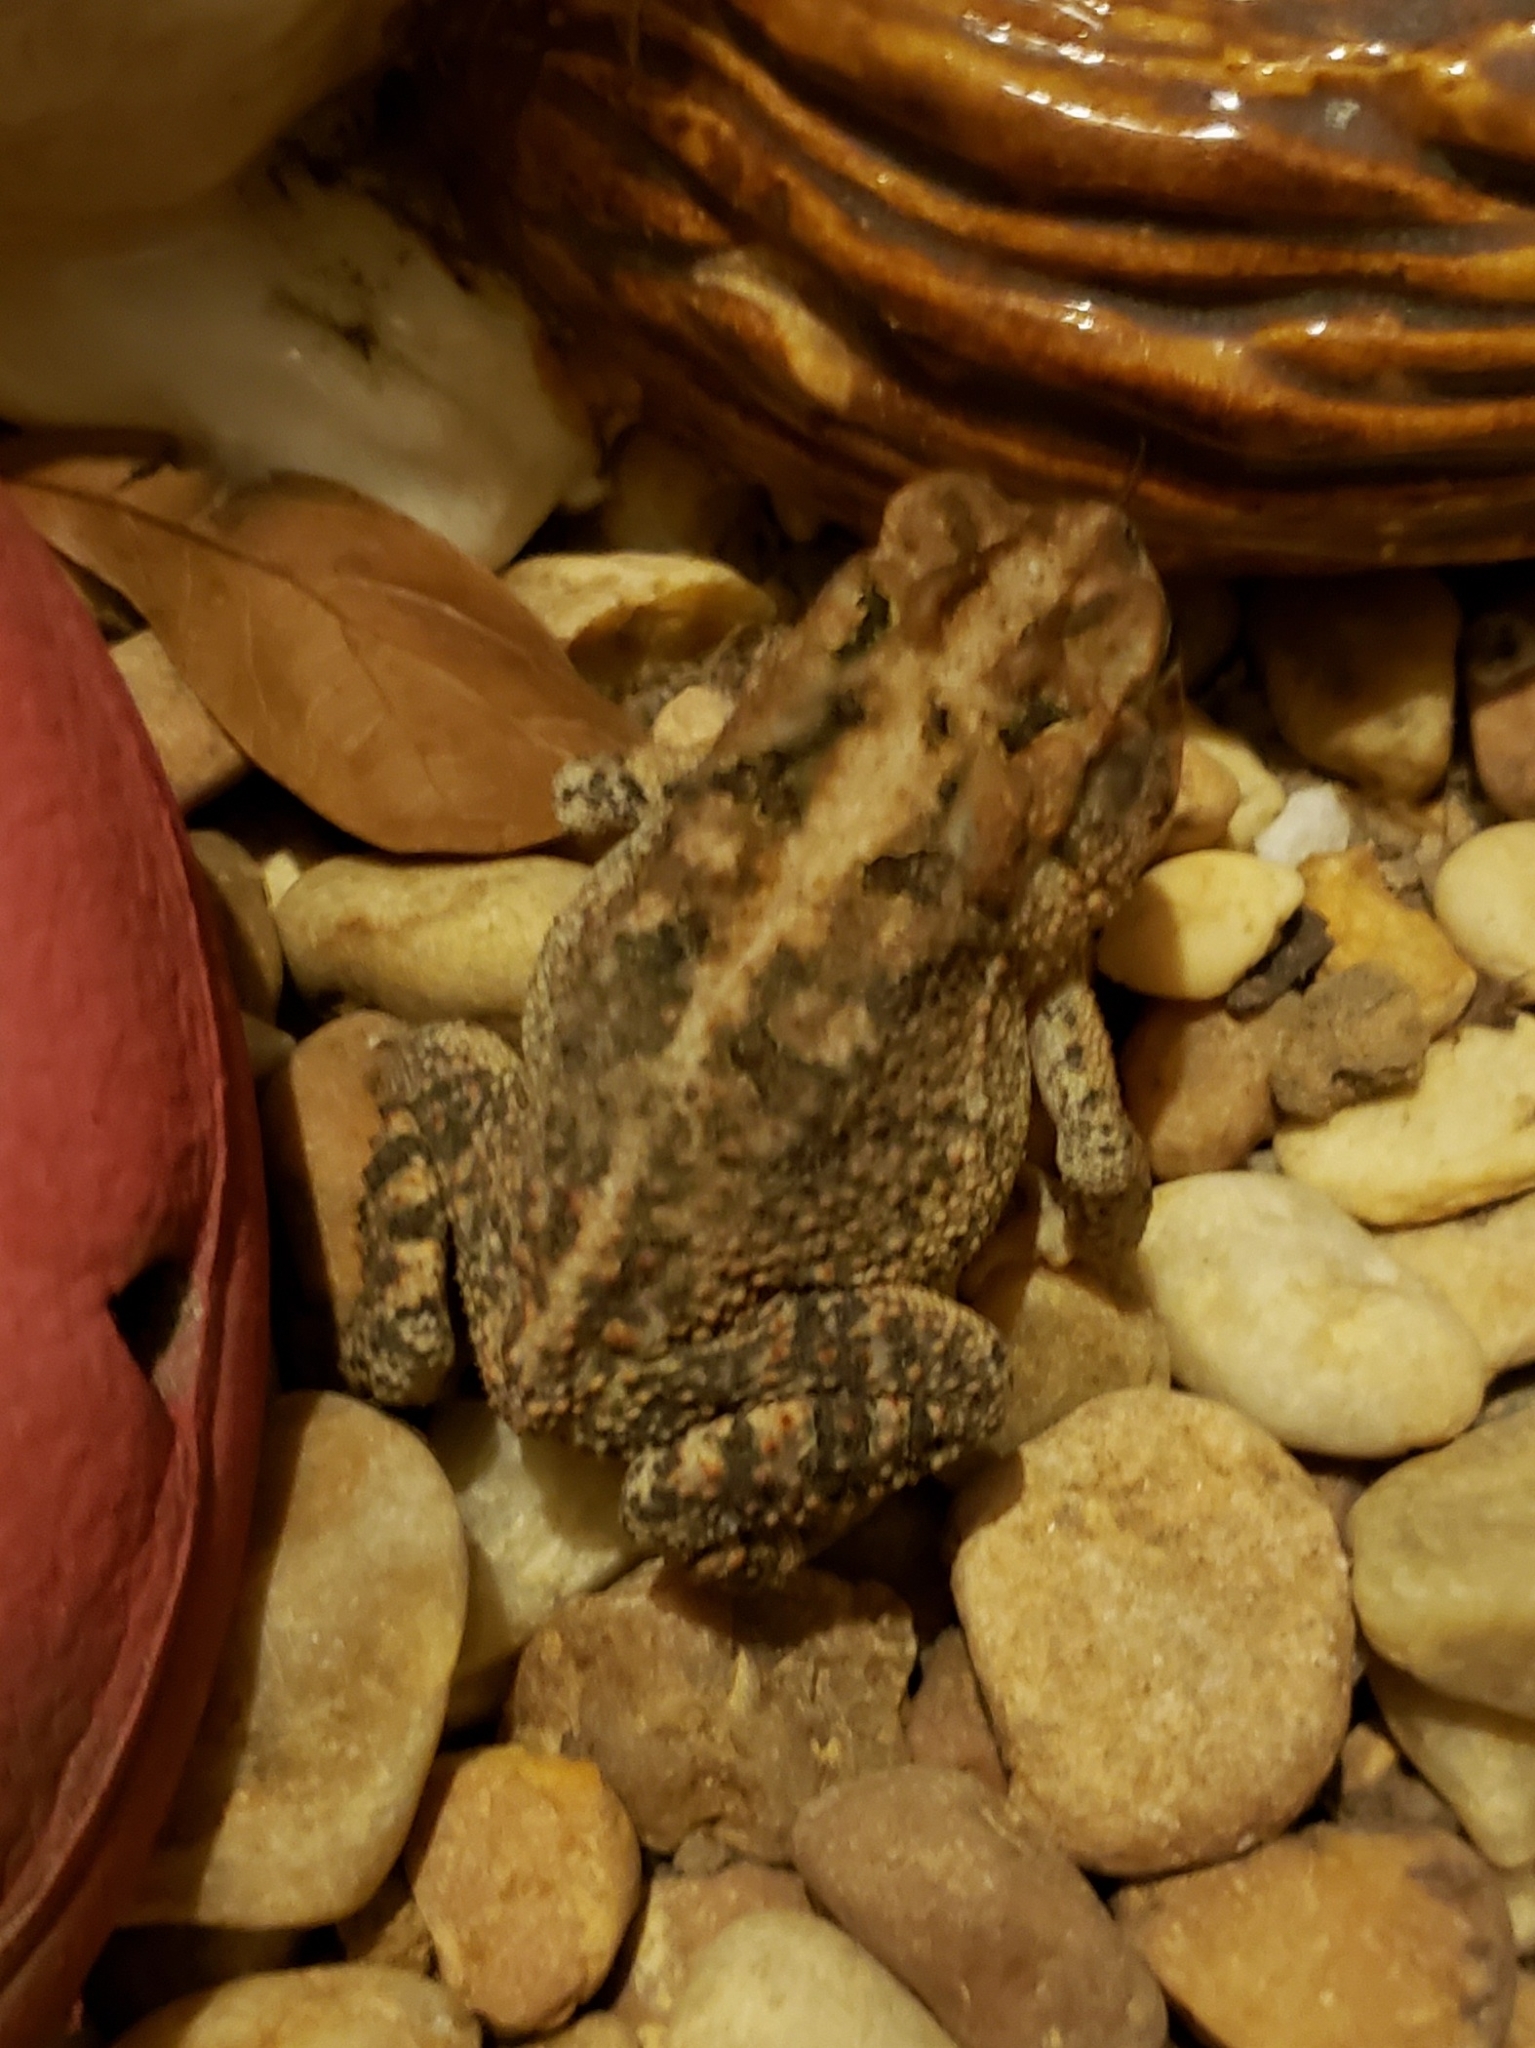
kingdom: Animalia
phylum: Chordata
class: Amphibia
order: Anura
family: Bufonidae
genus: Anaxyrus
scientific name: Anaxyrus terrestris
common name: Southern toad
